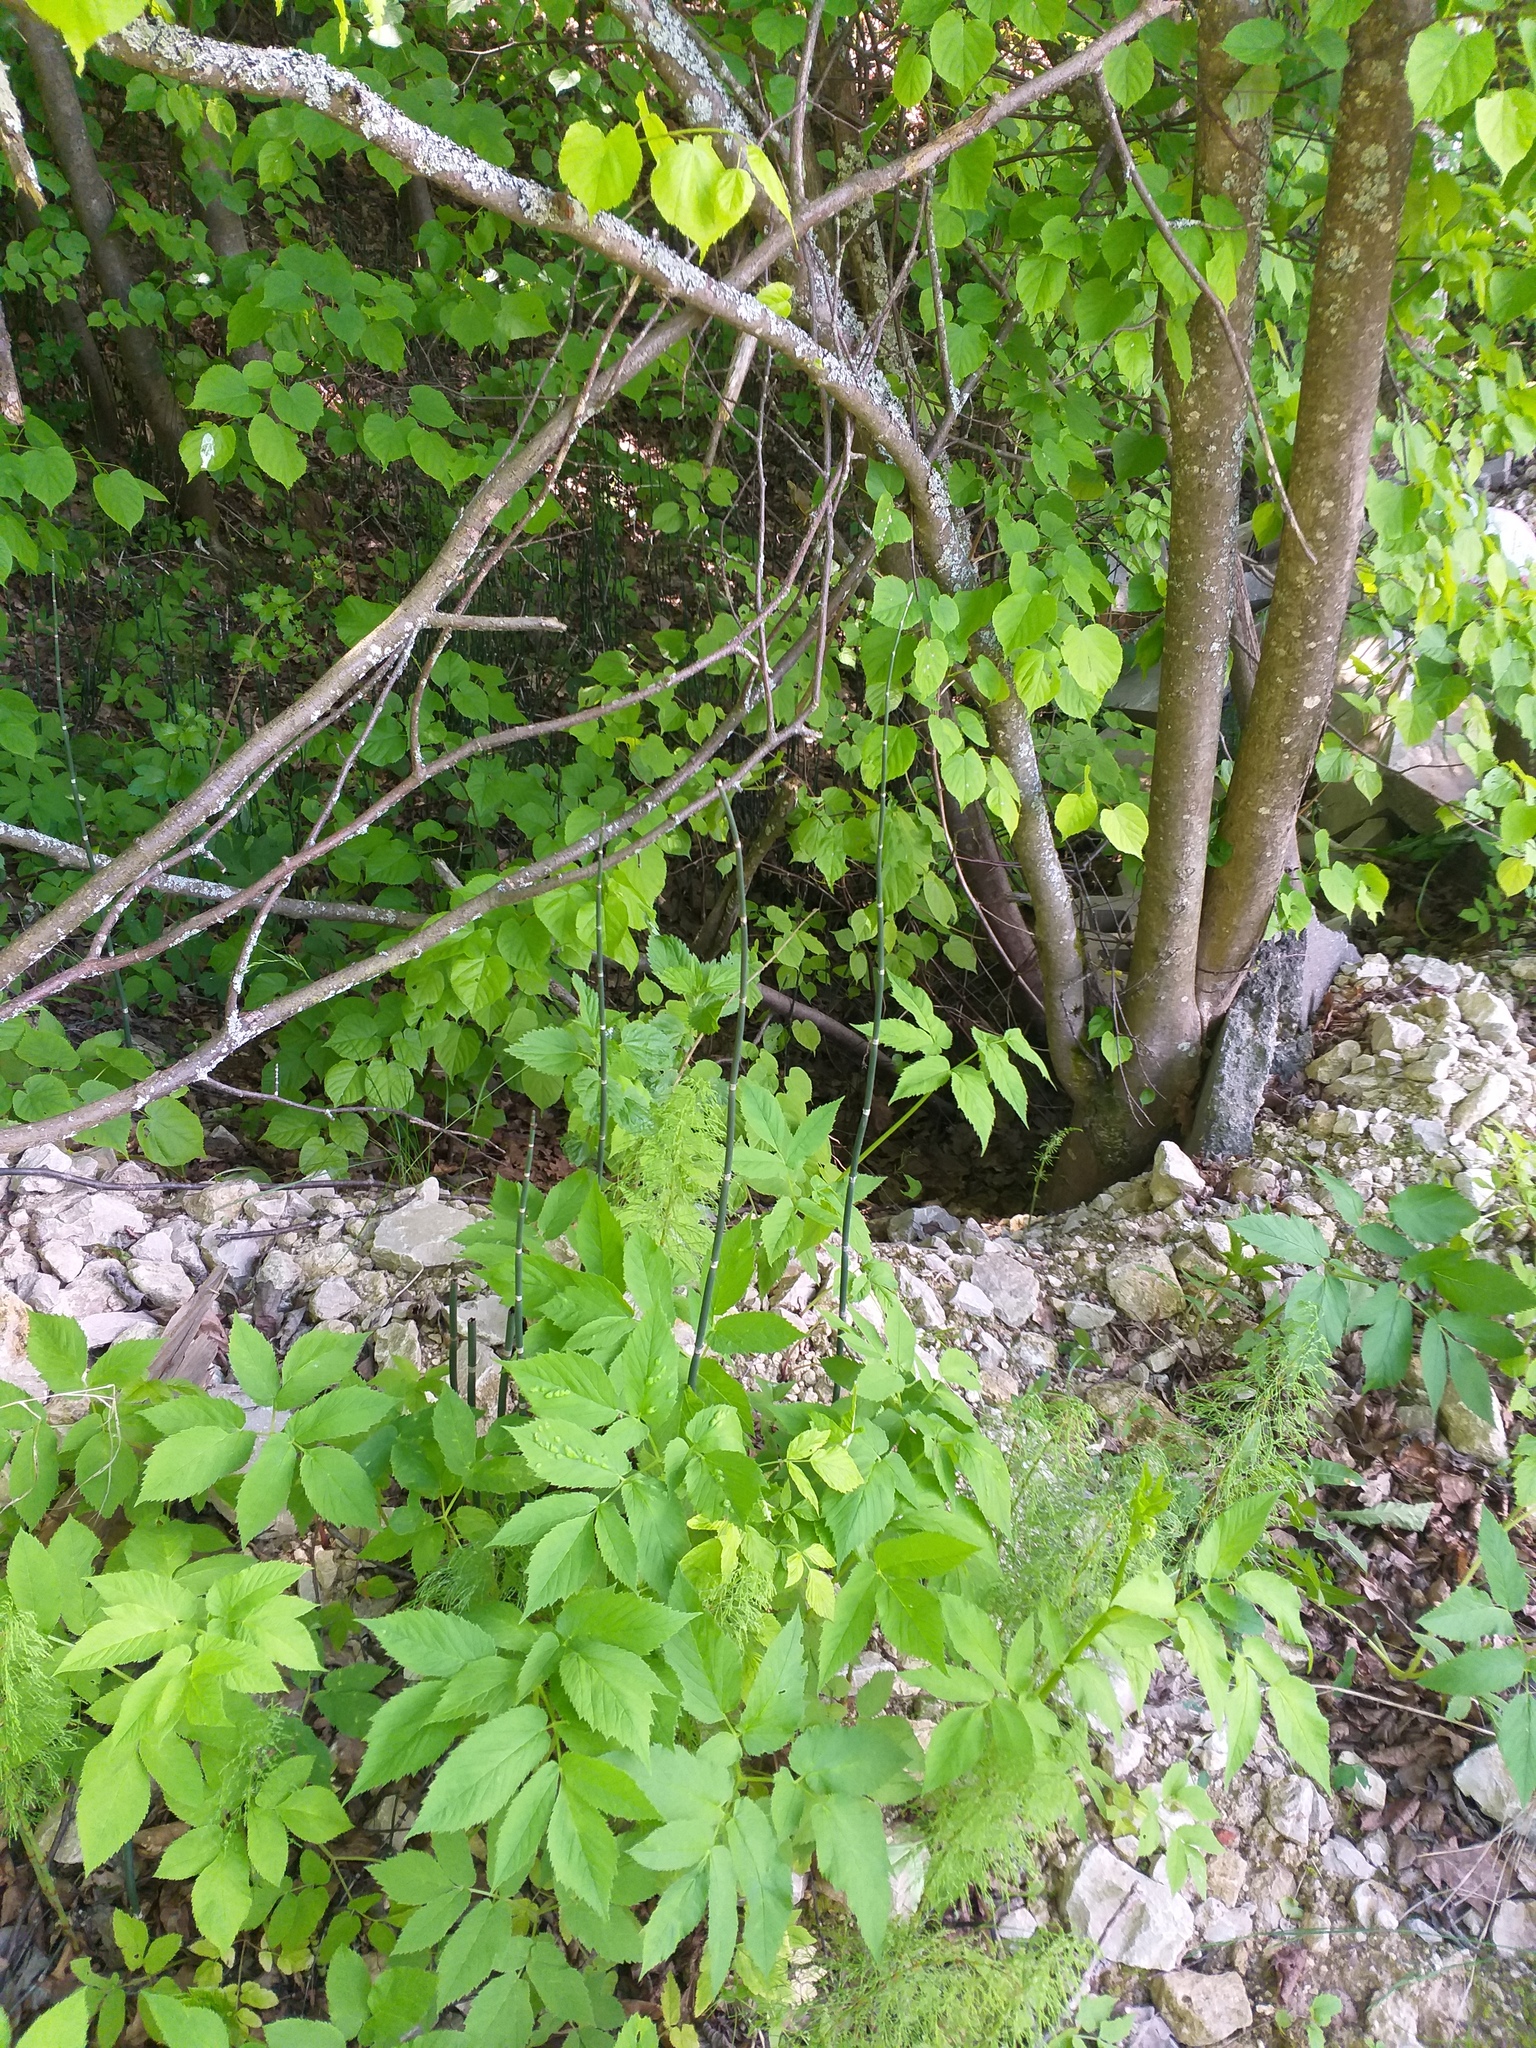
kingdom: Plantae
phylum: Tracheophyta
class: Polypodiopsida
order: Equisetales
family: Equisetaceae
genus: Equisetum
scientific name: Equisetum hyemale
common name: Rough horsetail
